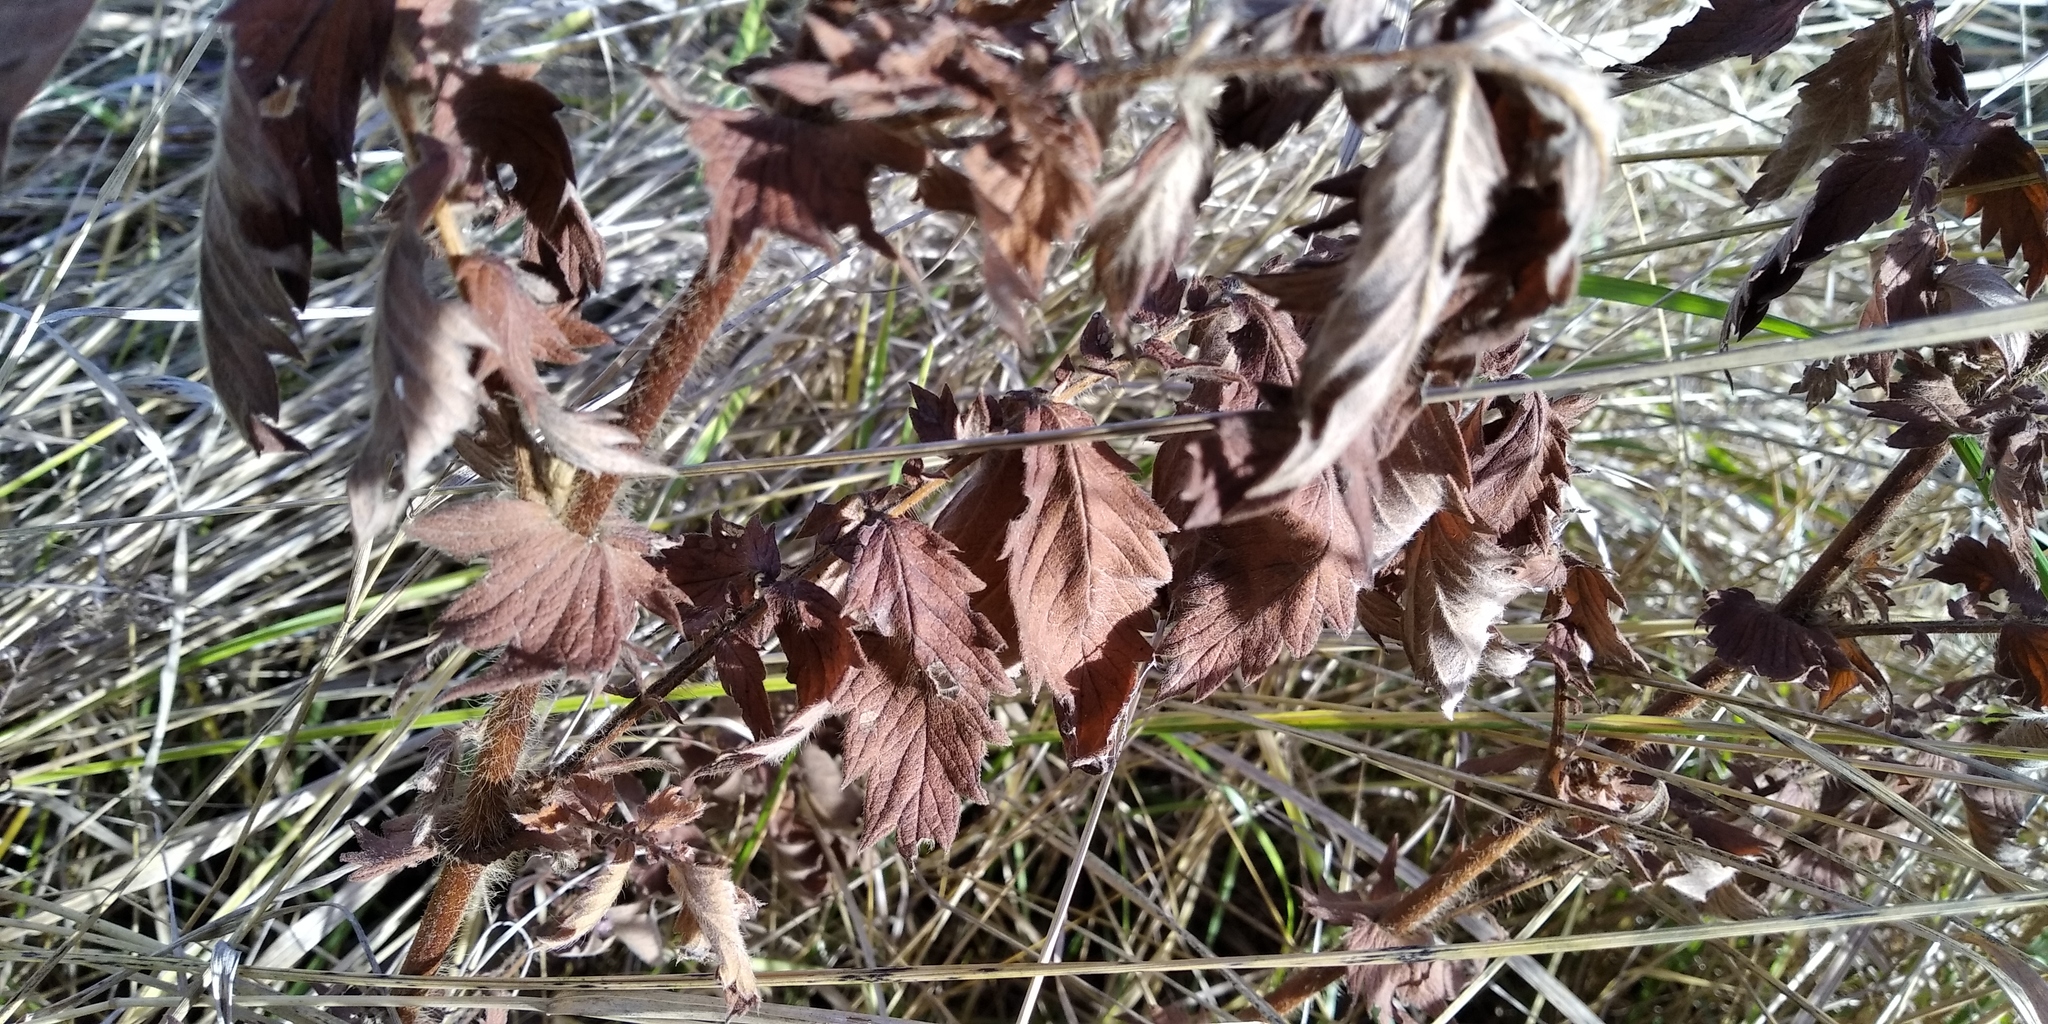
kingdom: Plantae
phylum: Tracheophyta
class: Magnoliopsida
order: Rosales
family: Rosaceae
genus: Agrimonia
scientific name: Agrimonia eupatoria
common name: Agrimony
